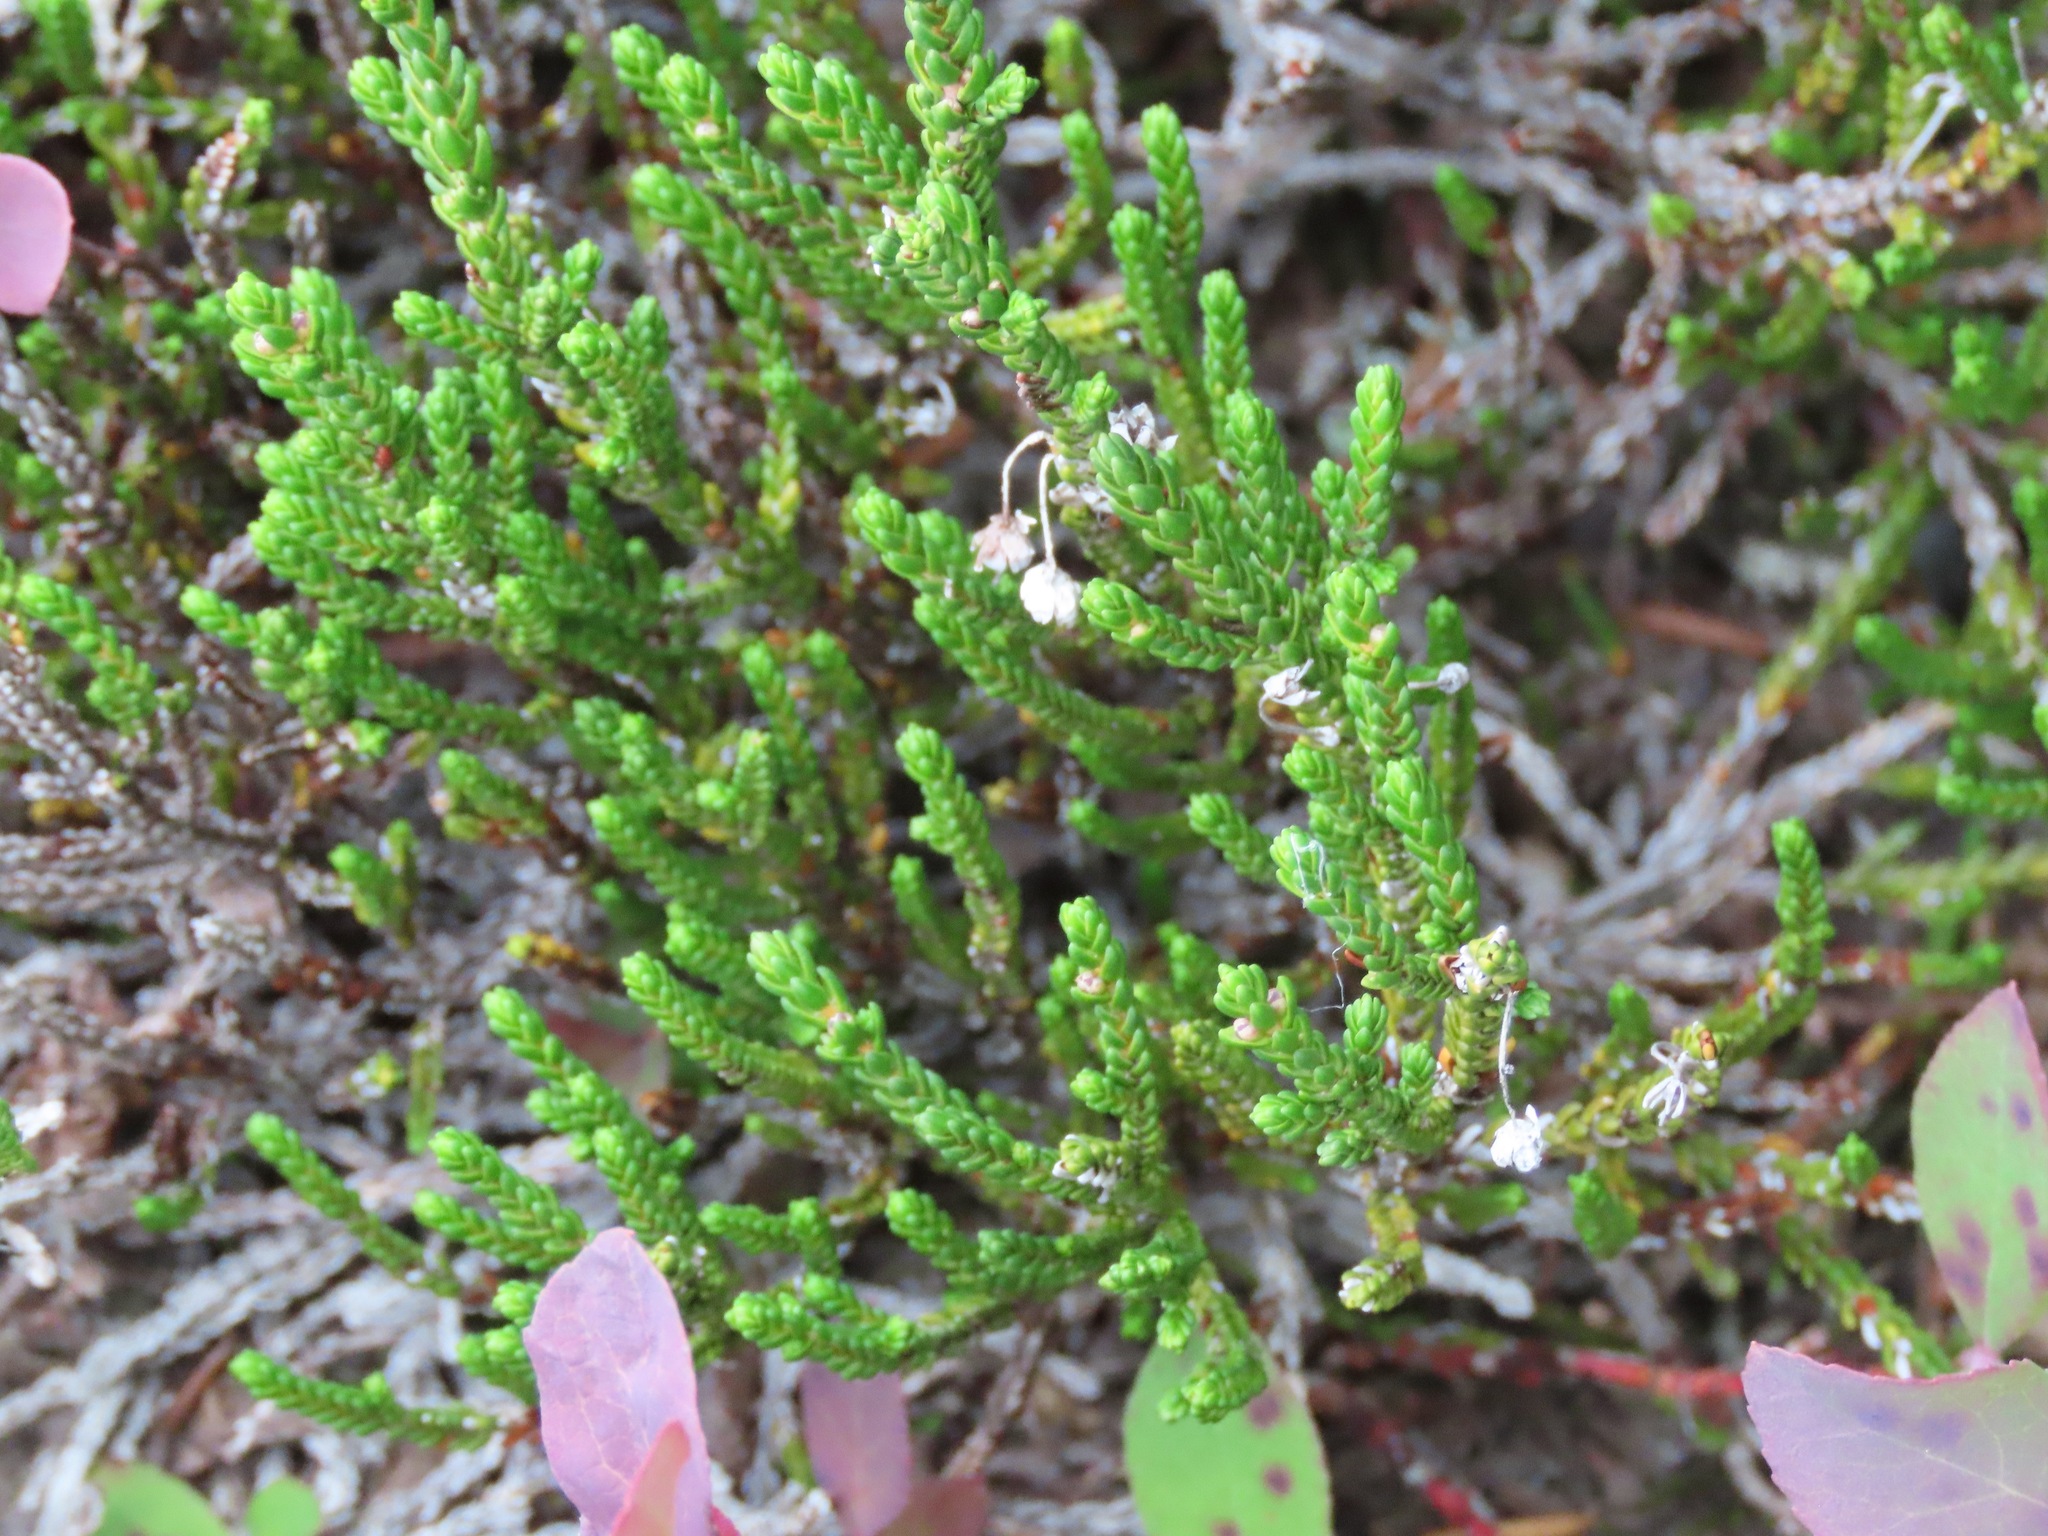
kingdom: Plantae
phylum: Tracheophyta
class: Magnoliopsida
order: Ericales
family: Ericaceae
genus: Cassiope
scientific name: Cassiope mertensiana
